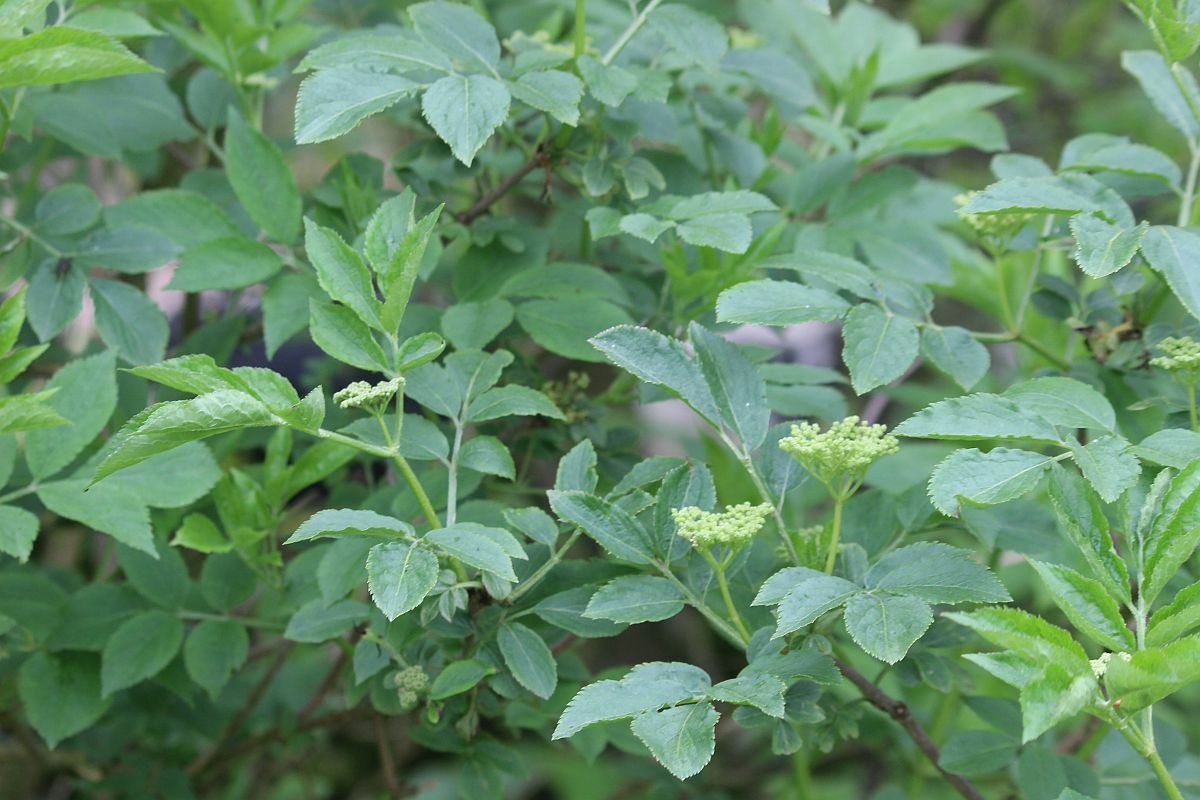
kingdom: Plantae
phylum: Tracheophyta
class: Magnoliopsida
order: Dipsacales
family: Viburnaceae
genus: Sambucus
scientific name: Sambucus nigra
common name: Elder
